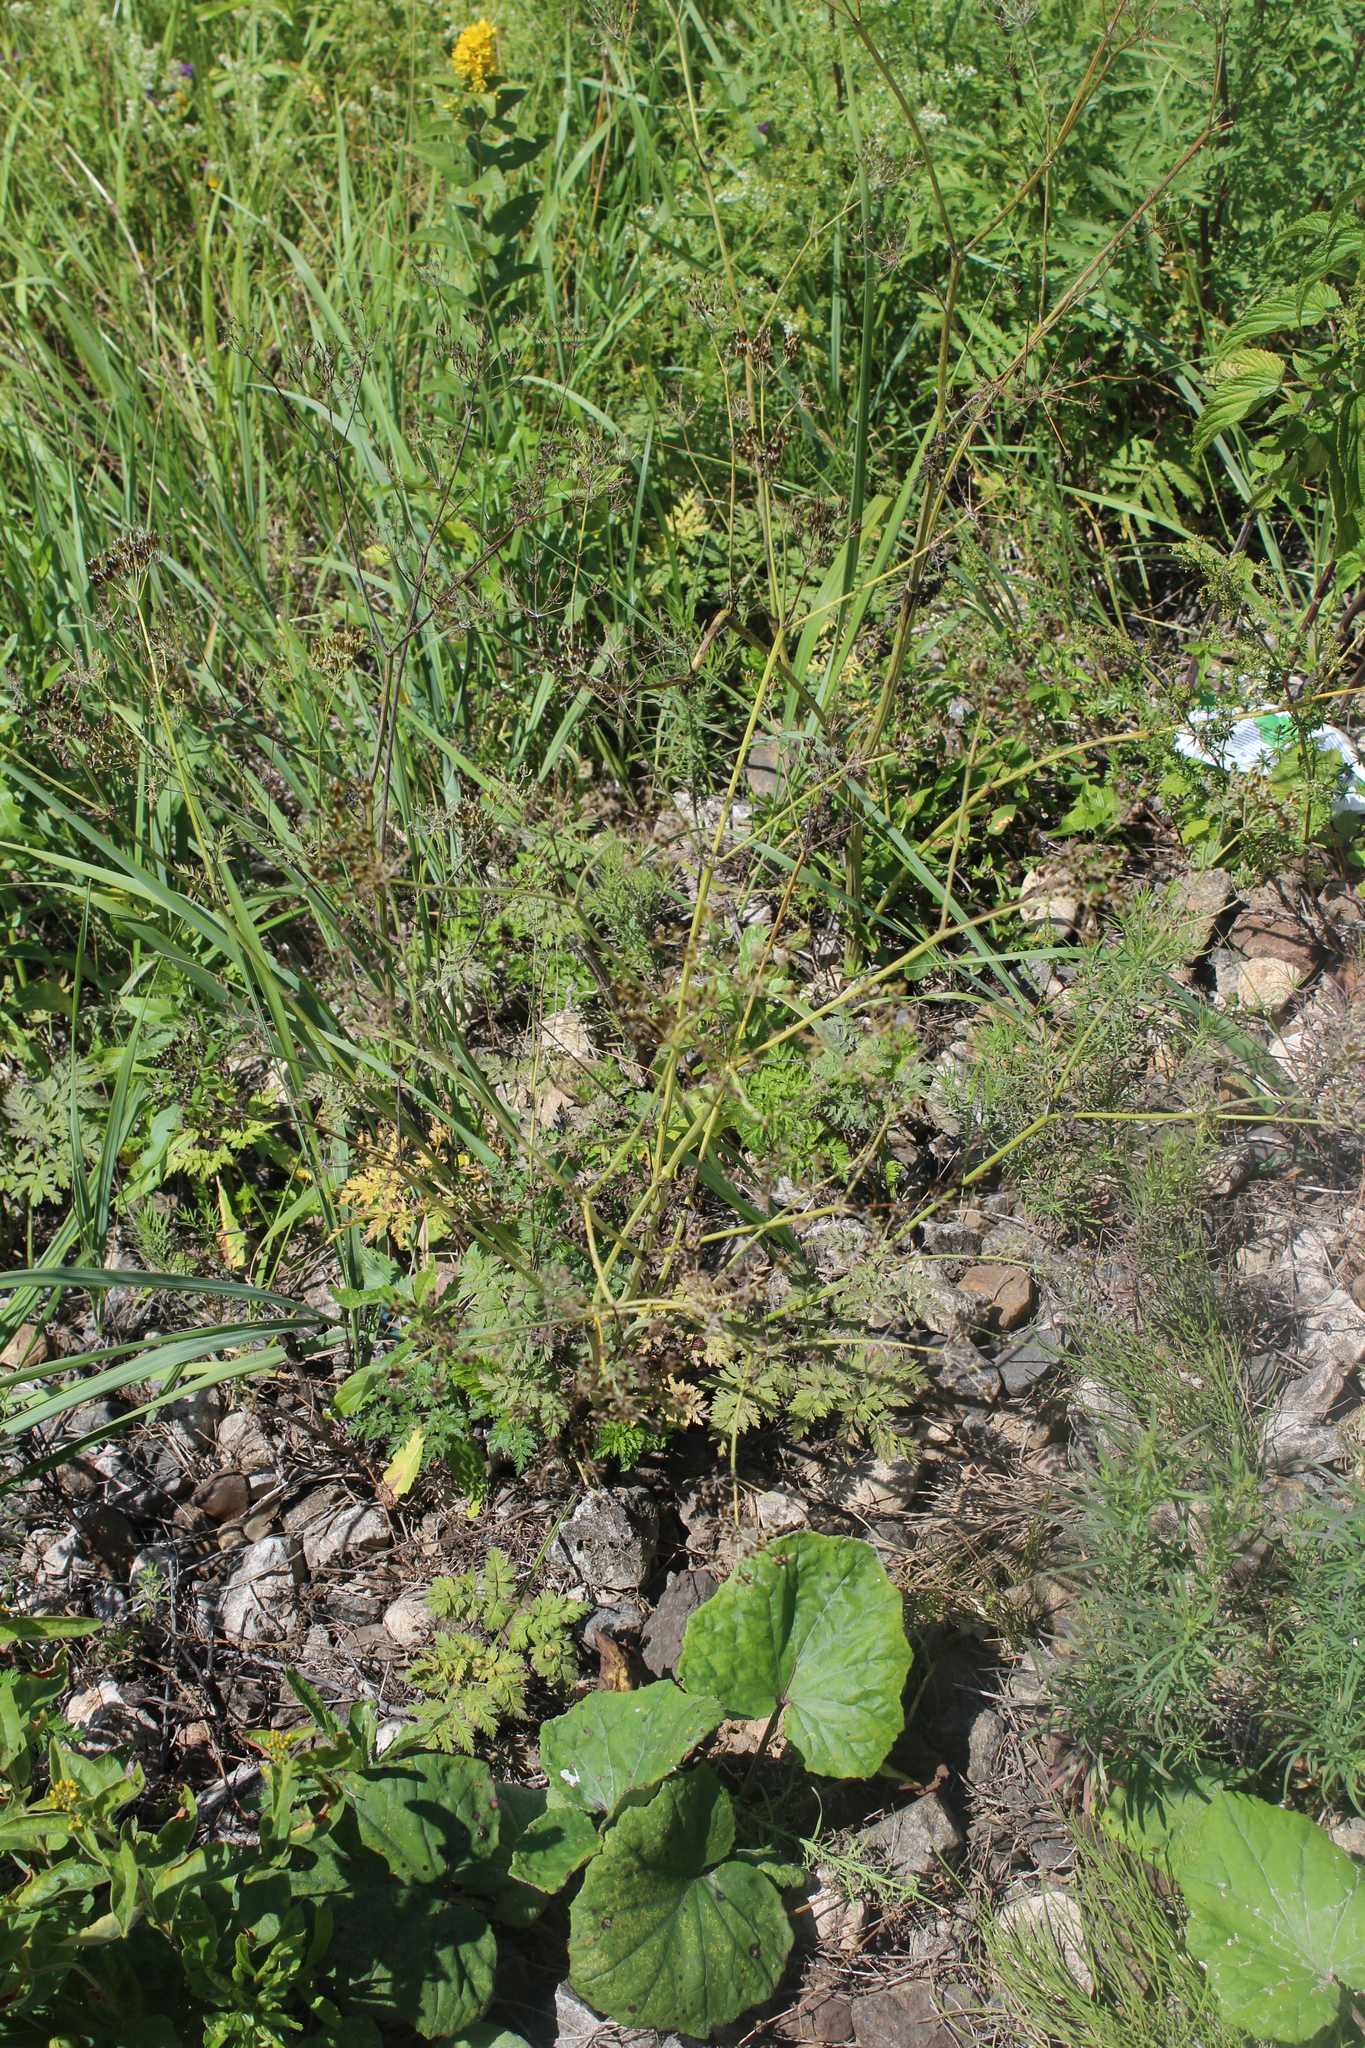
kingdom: Plantae
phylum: Tracheophyta
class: Magnoliopsida
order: Apiales
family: Apiaceae
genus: Anthriscus
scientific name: Anthriscus sylvestris
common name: Cow parsley
